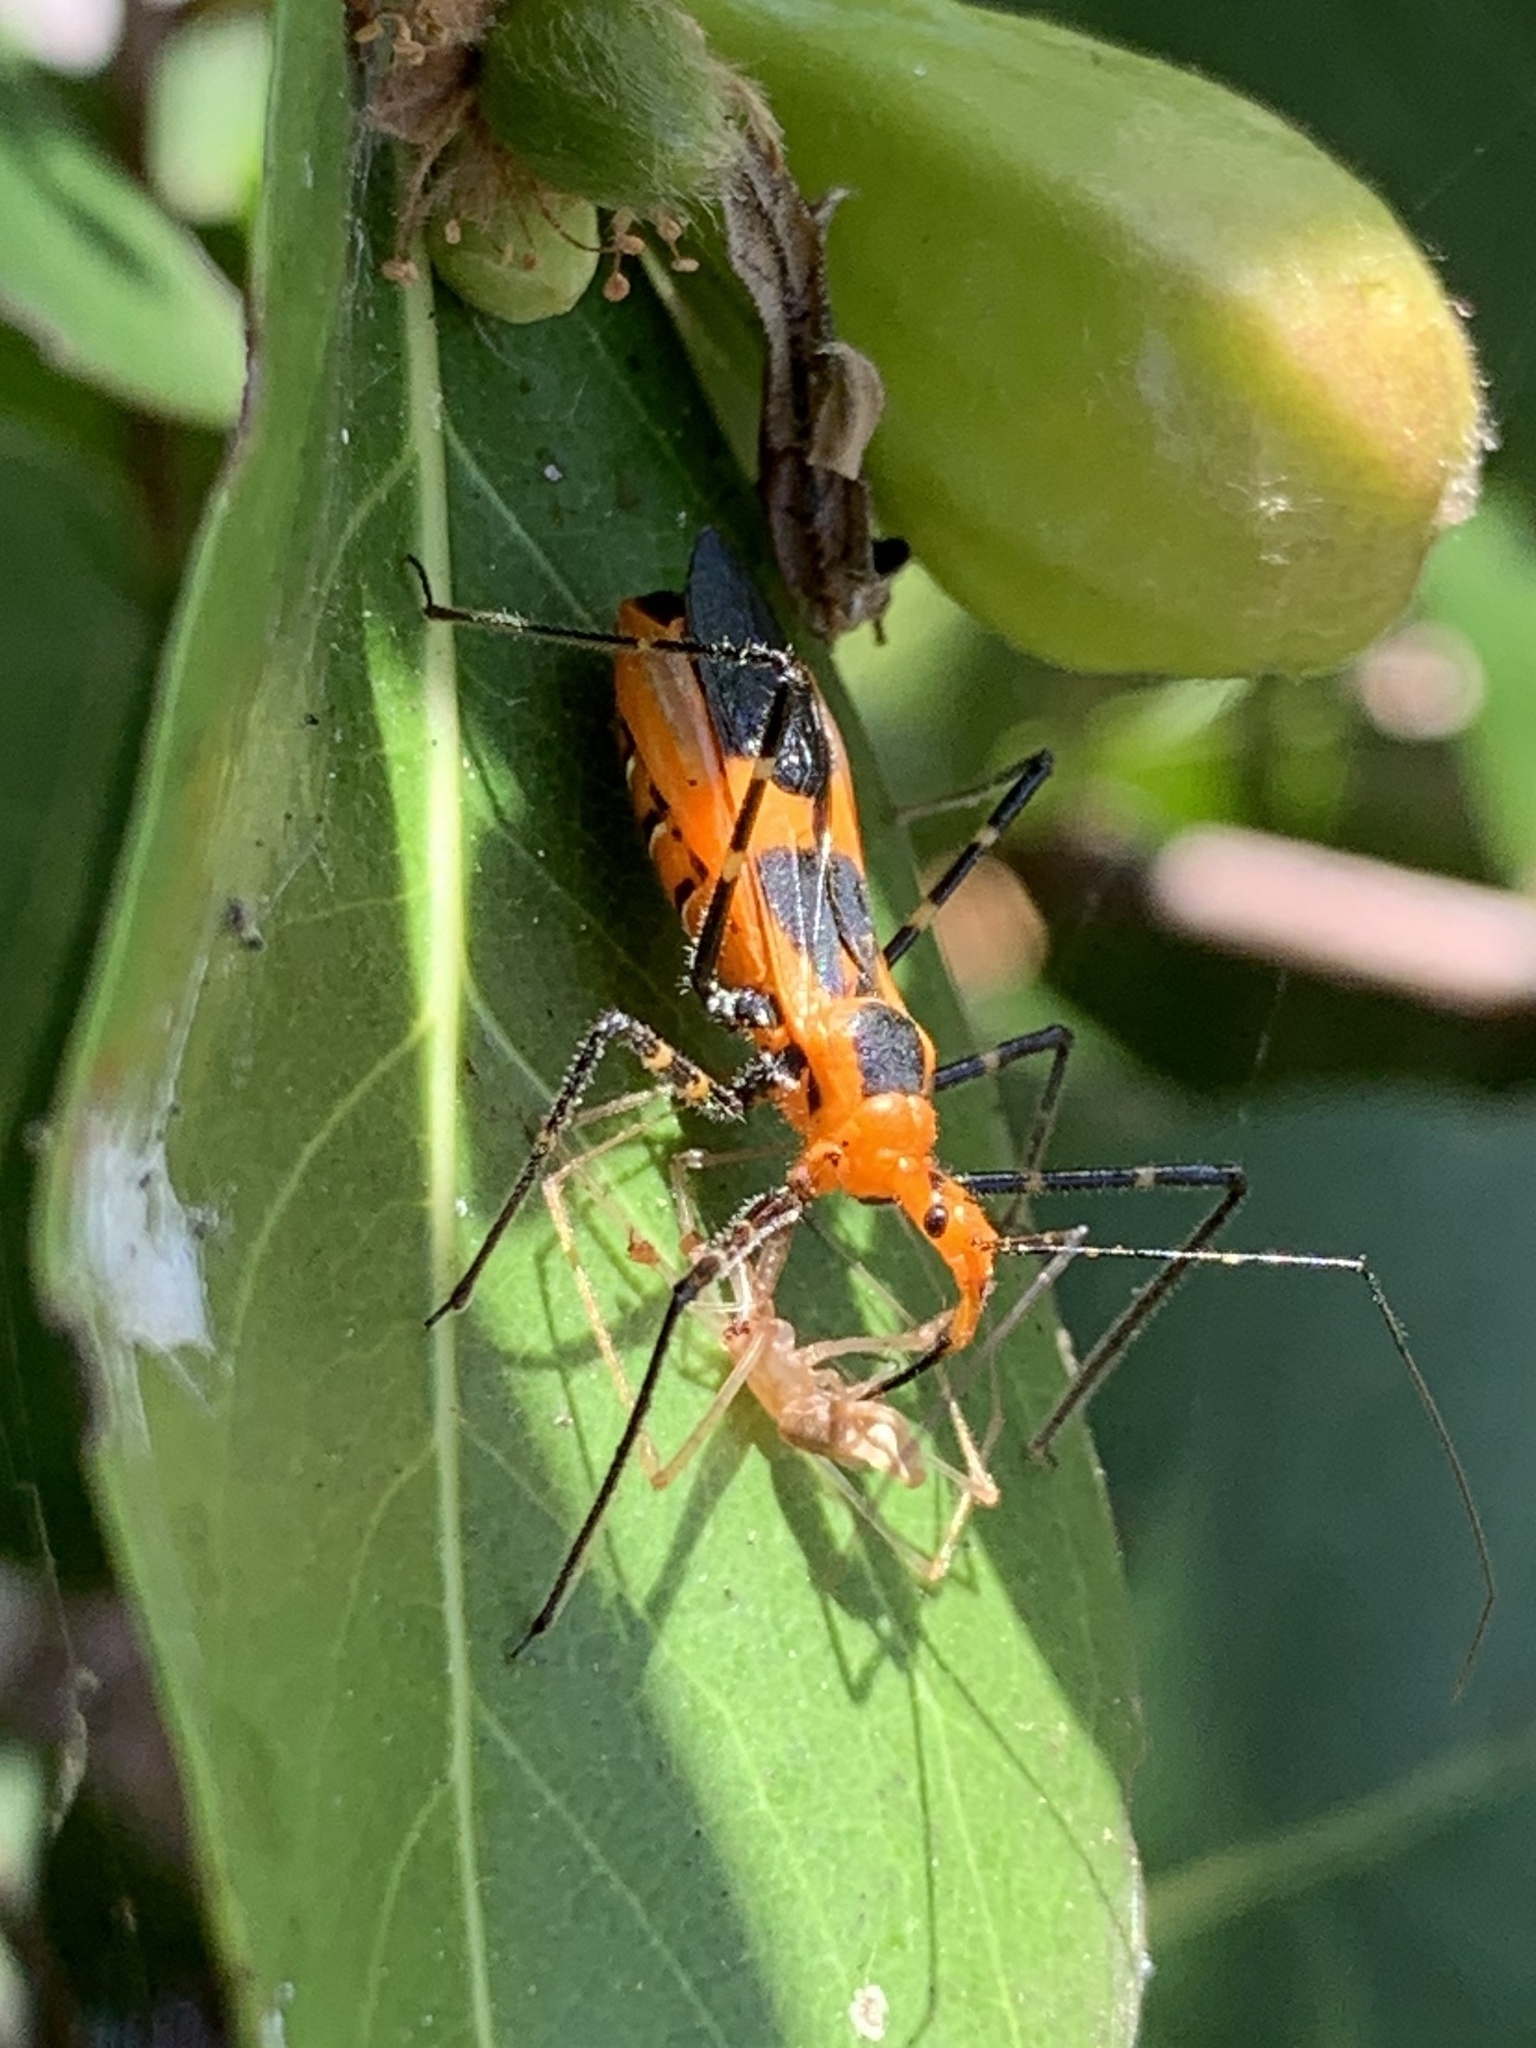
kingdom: Animalia
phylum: Arthropoda
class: Insecta
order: Hemiptera
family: Reduviidae
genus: Zelus
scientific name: Zelus longipes
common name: Milkweed assassin bug
